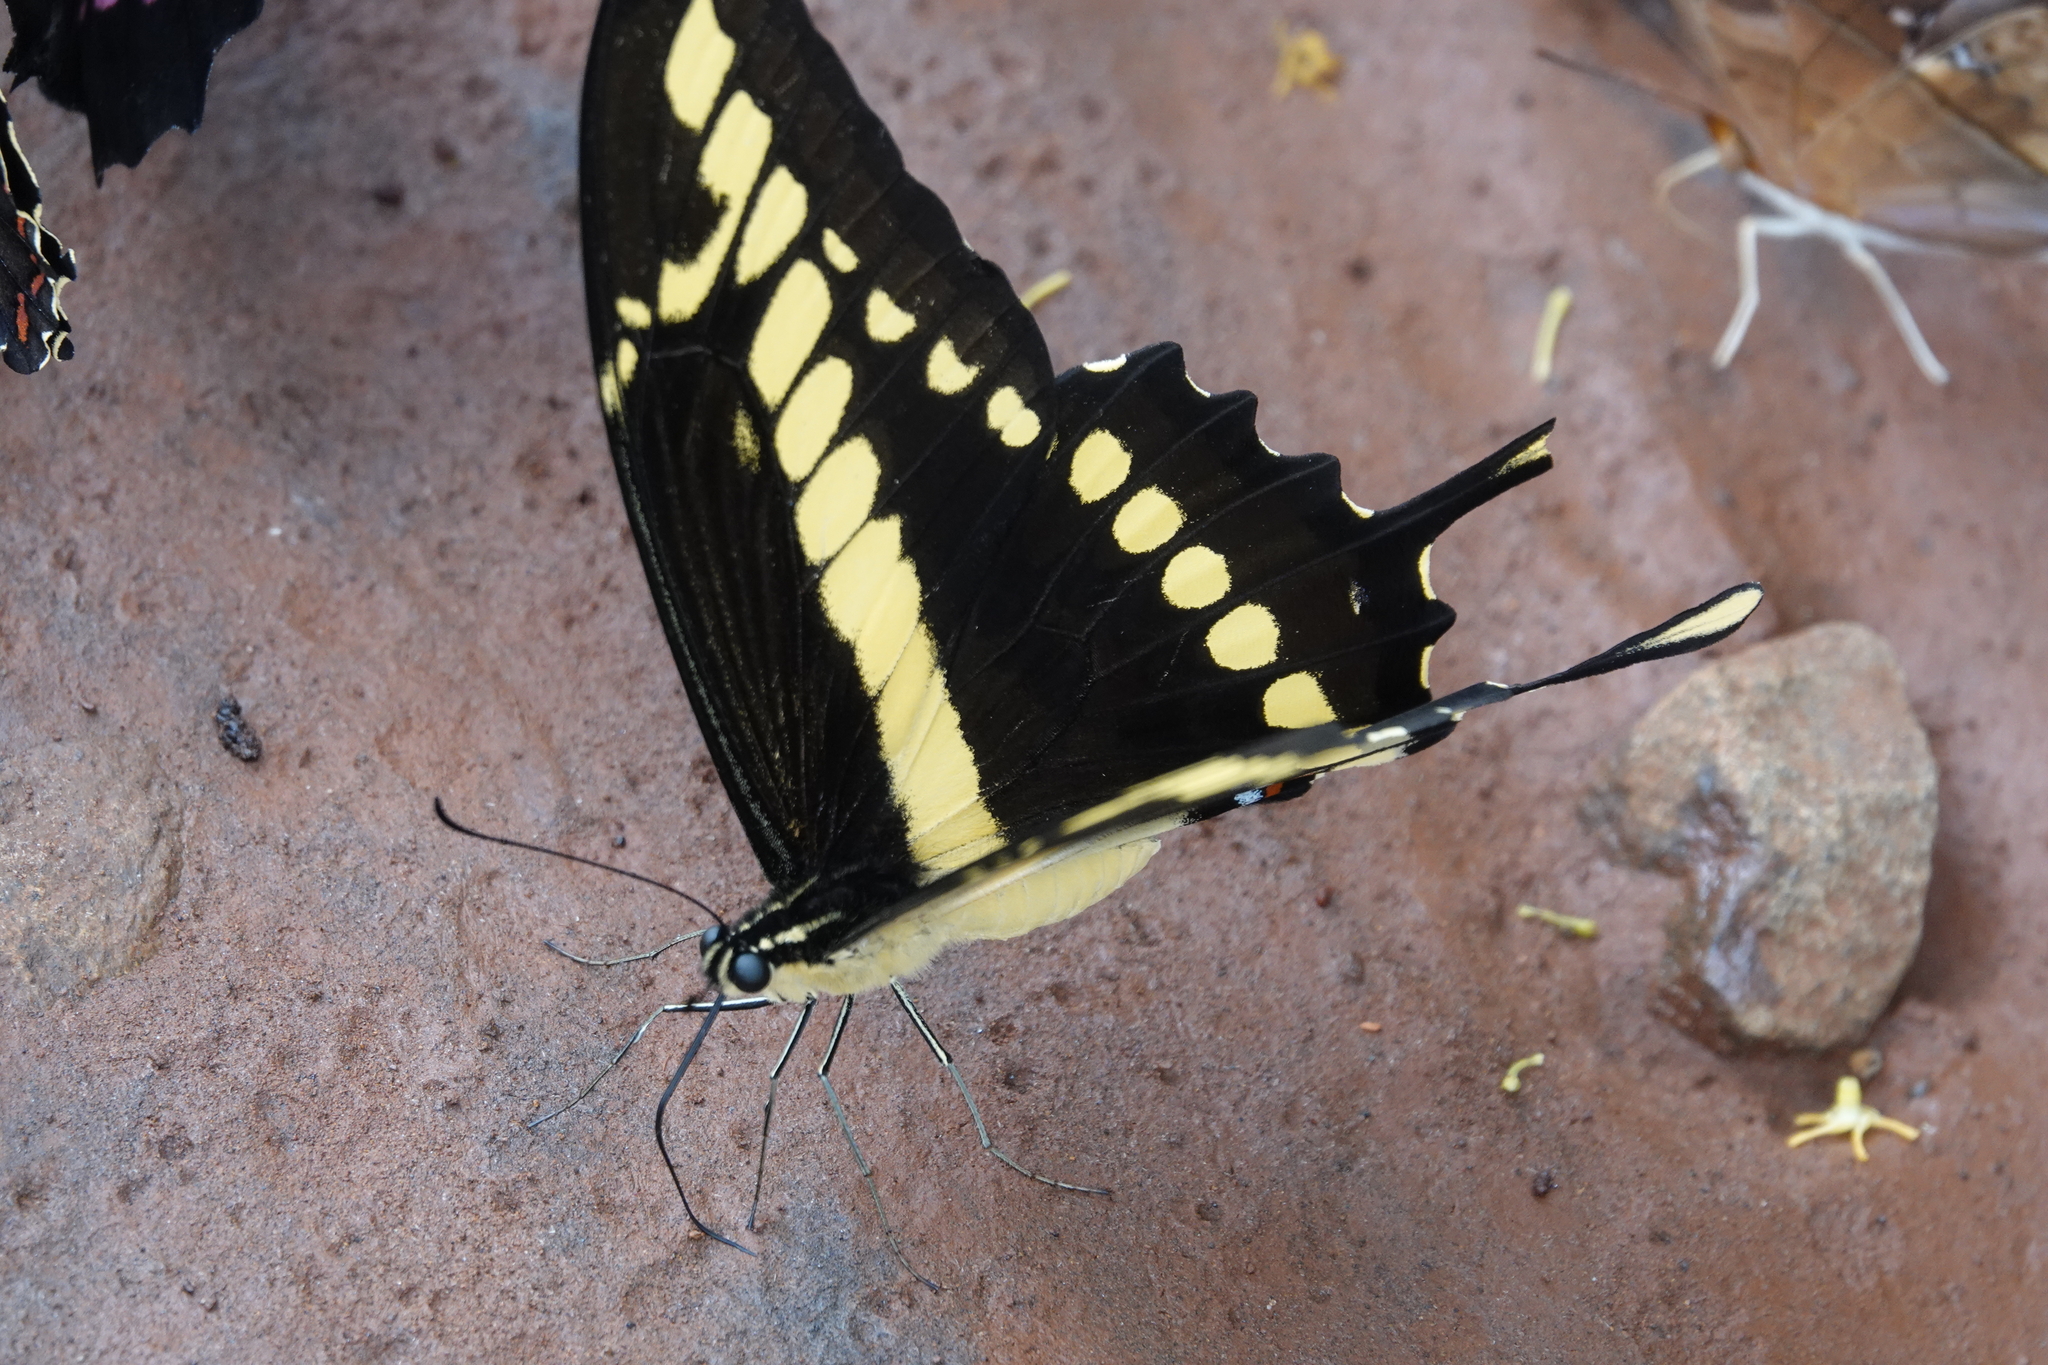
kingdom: Animalia
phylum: Arthropoda
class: Insecta
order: Lepidoptera
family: Papilionidae
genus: Papilio
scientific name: Papilio thoas
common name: King swallowtail
